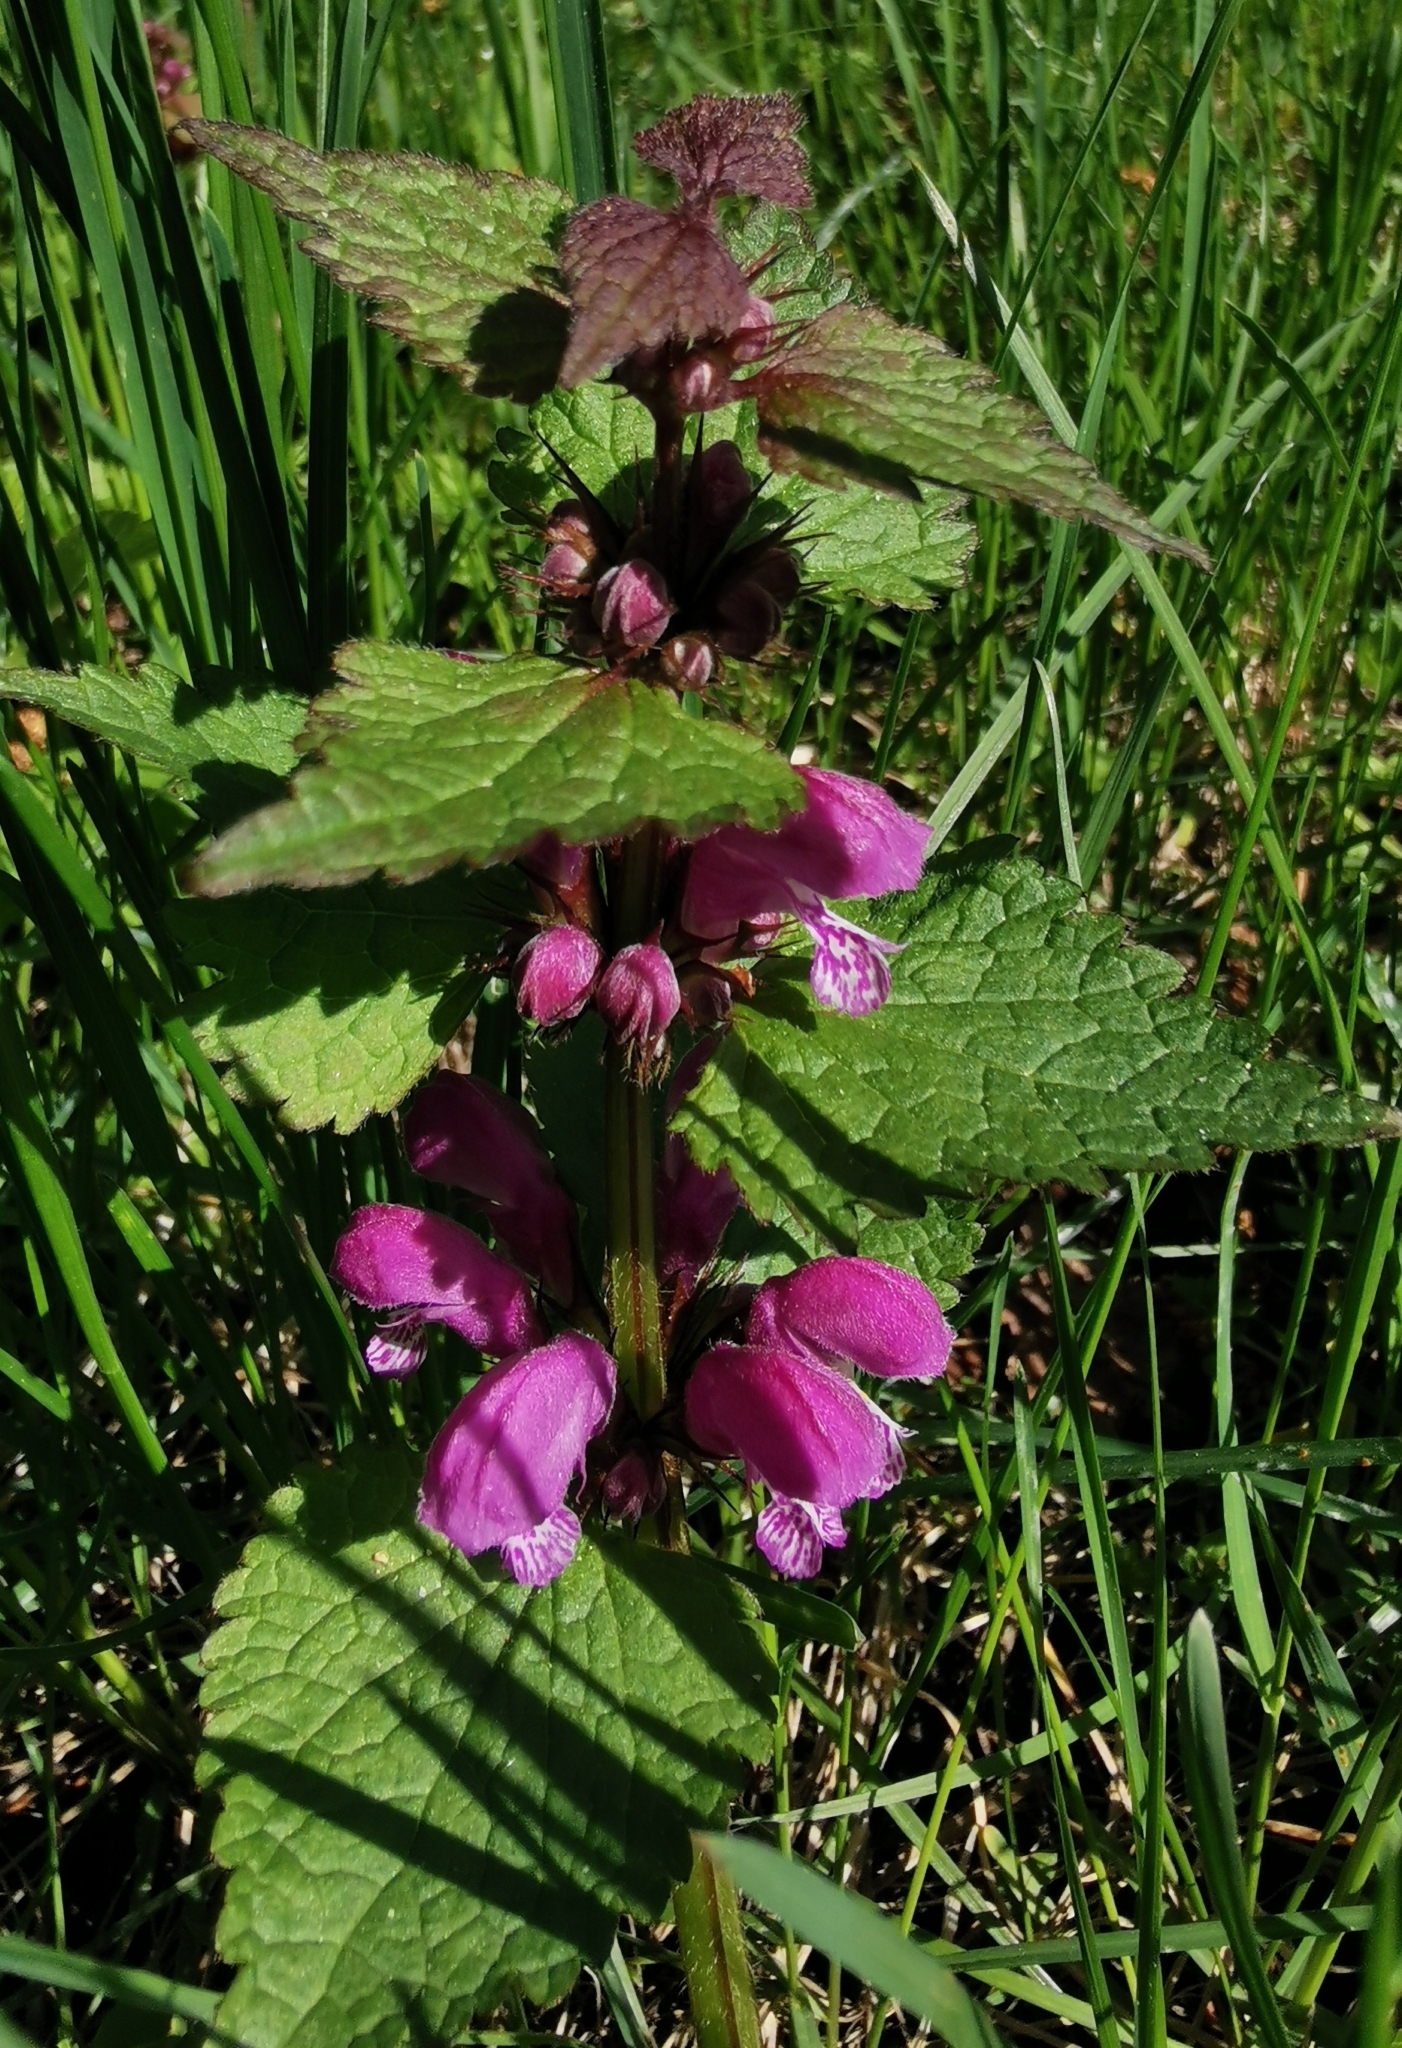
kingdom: Plantae
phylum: Tracheophyta
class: Magnoliopsida
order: Lamiales
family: Lamiaceae
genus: Lamium
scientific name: Lamium maculatum
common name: Spotted dead-nettle
